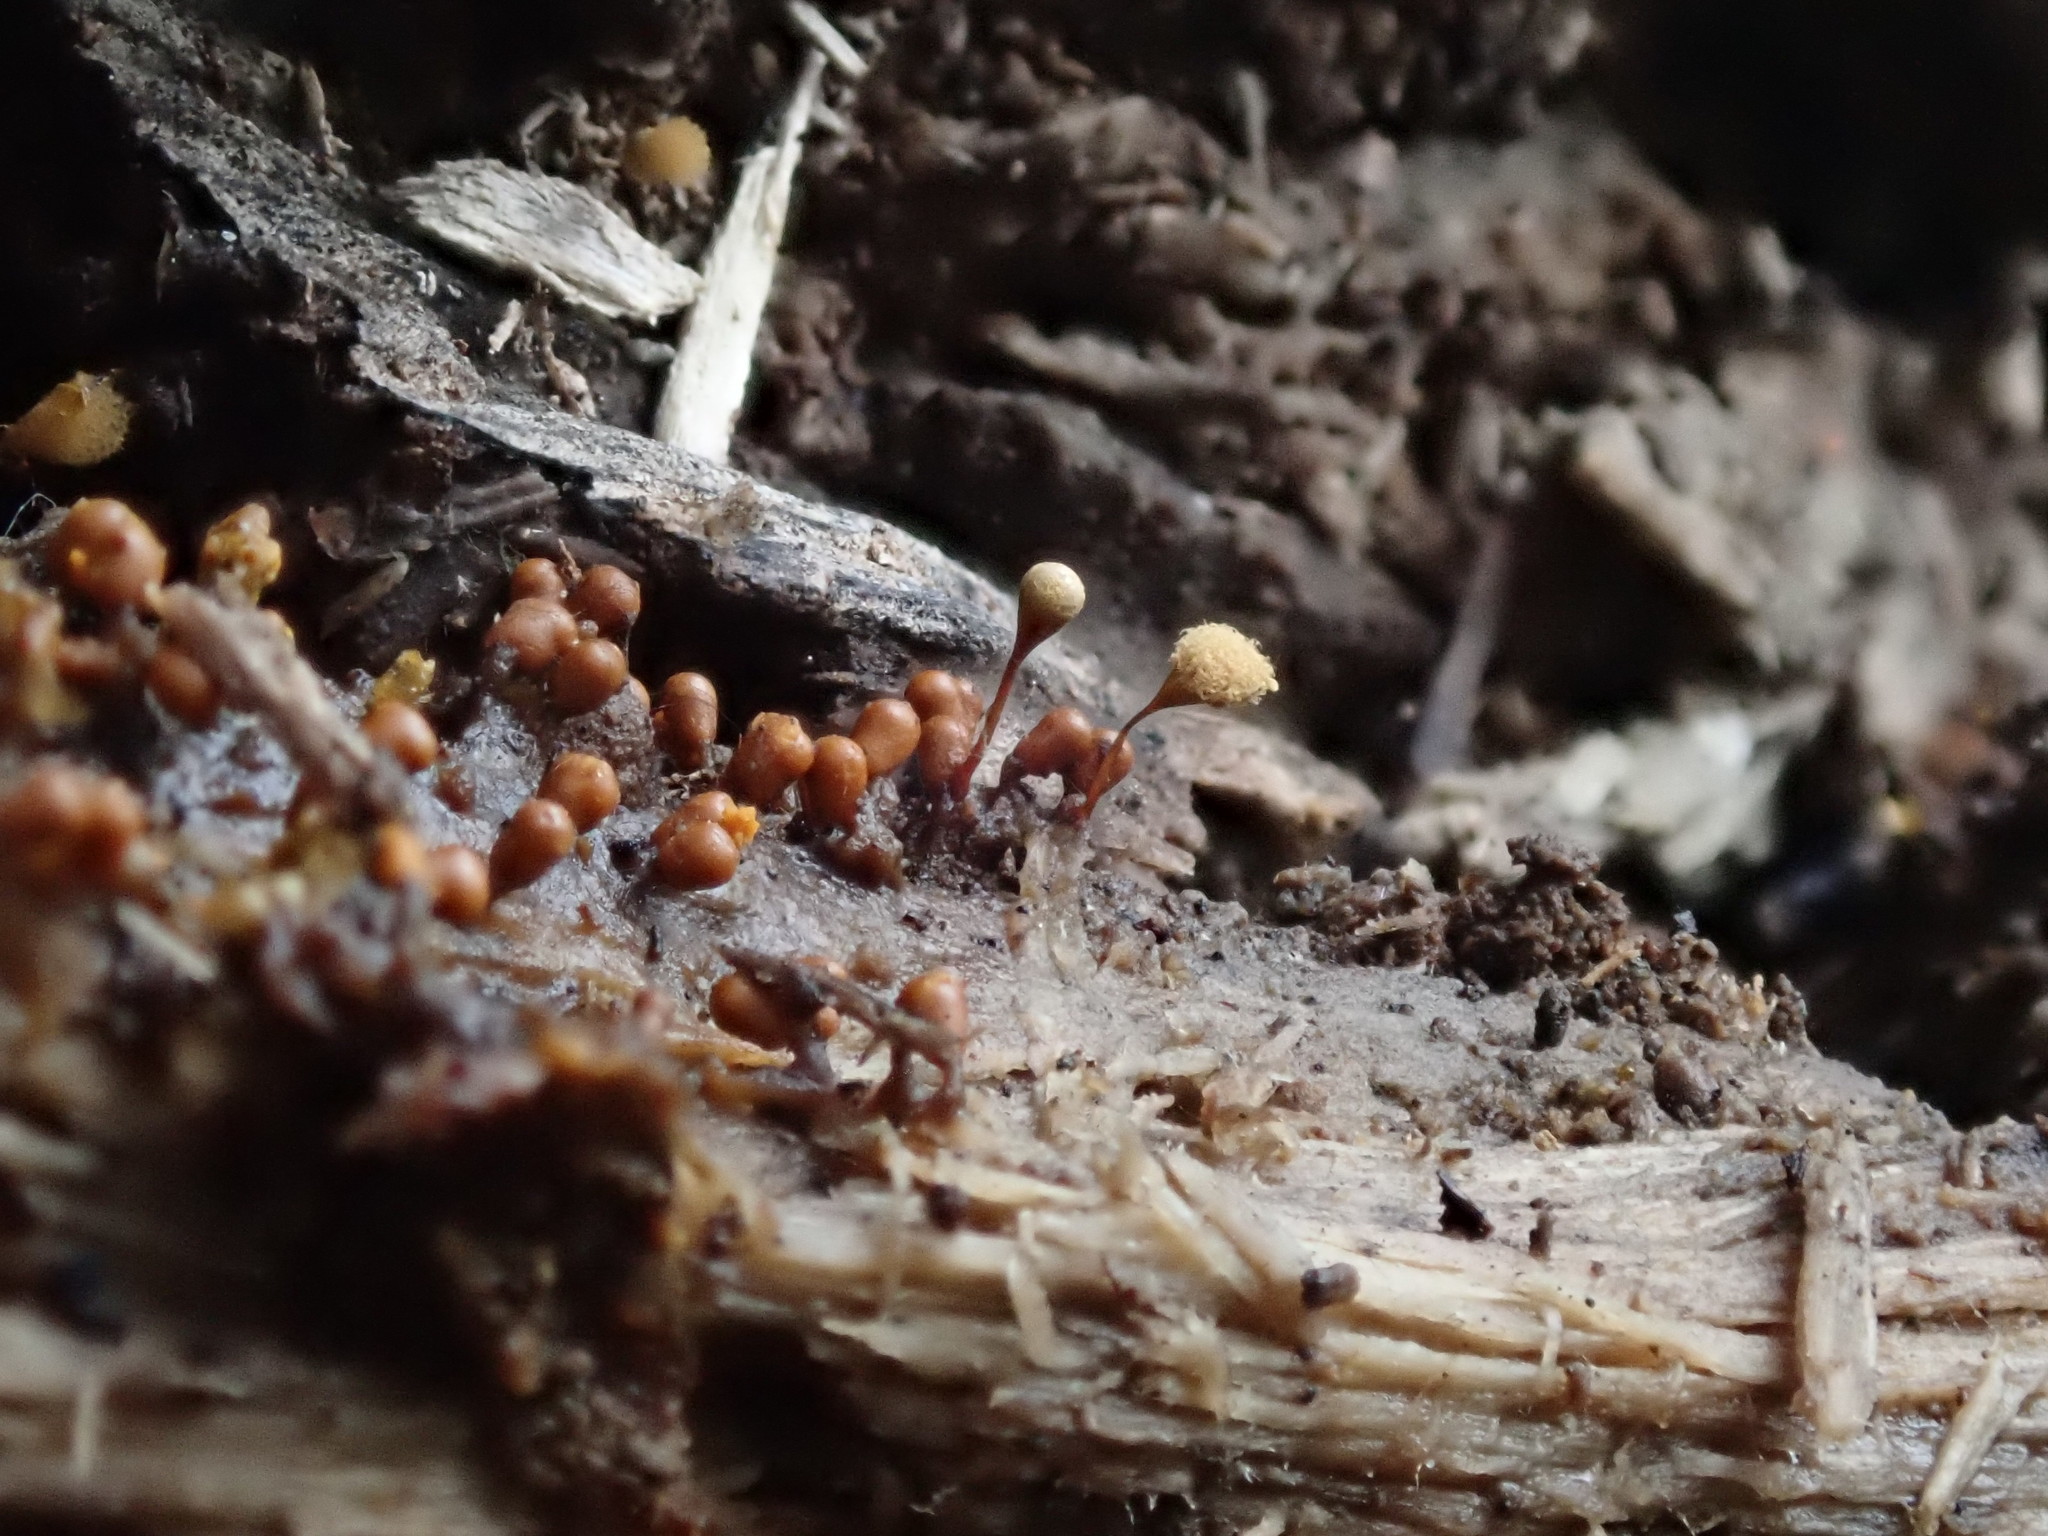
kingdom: Protozoa
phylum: Mycetozoa
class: Myxomycetes
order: Trichiales
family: Arcyriaceae
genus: Hemitrichia
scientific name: Hemitrichia calyculata
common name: Push pin slime mold
